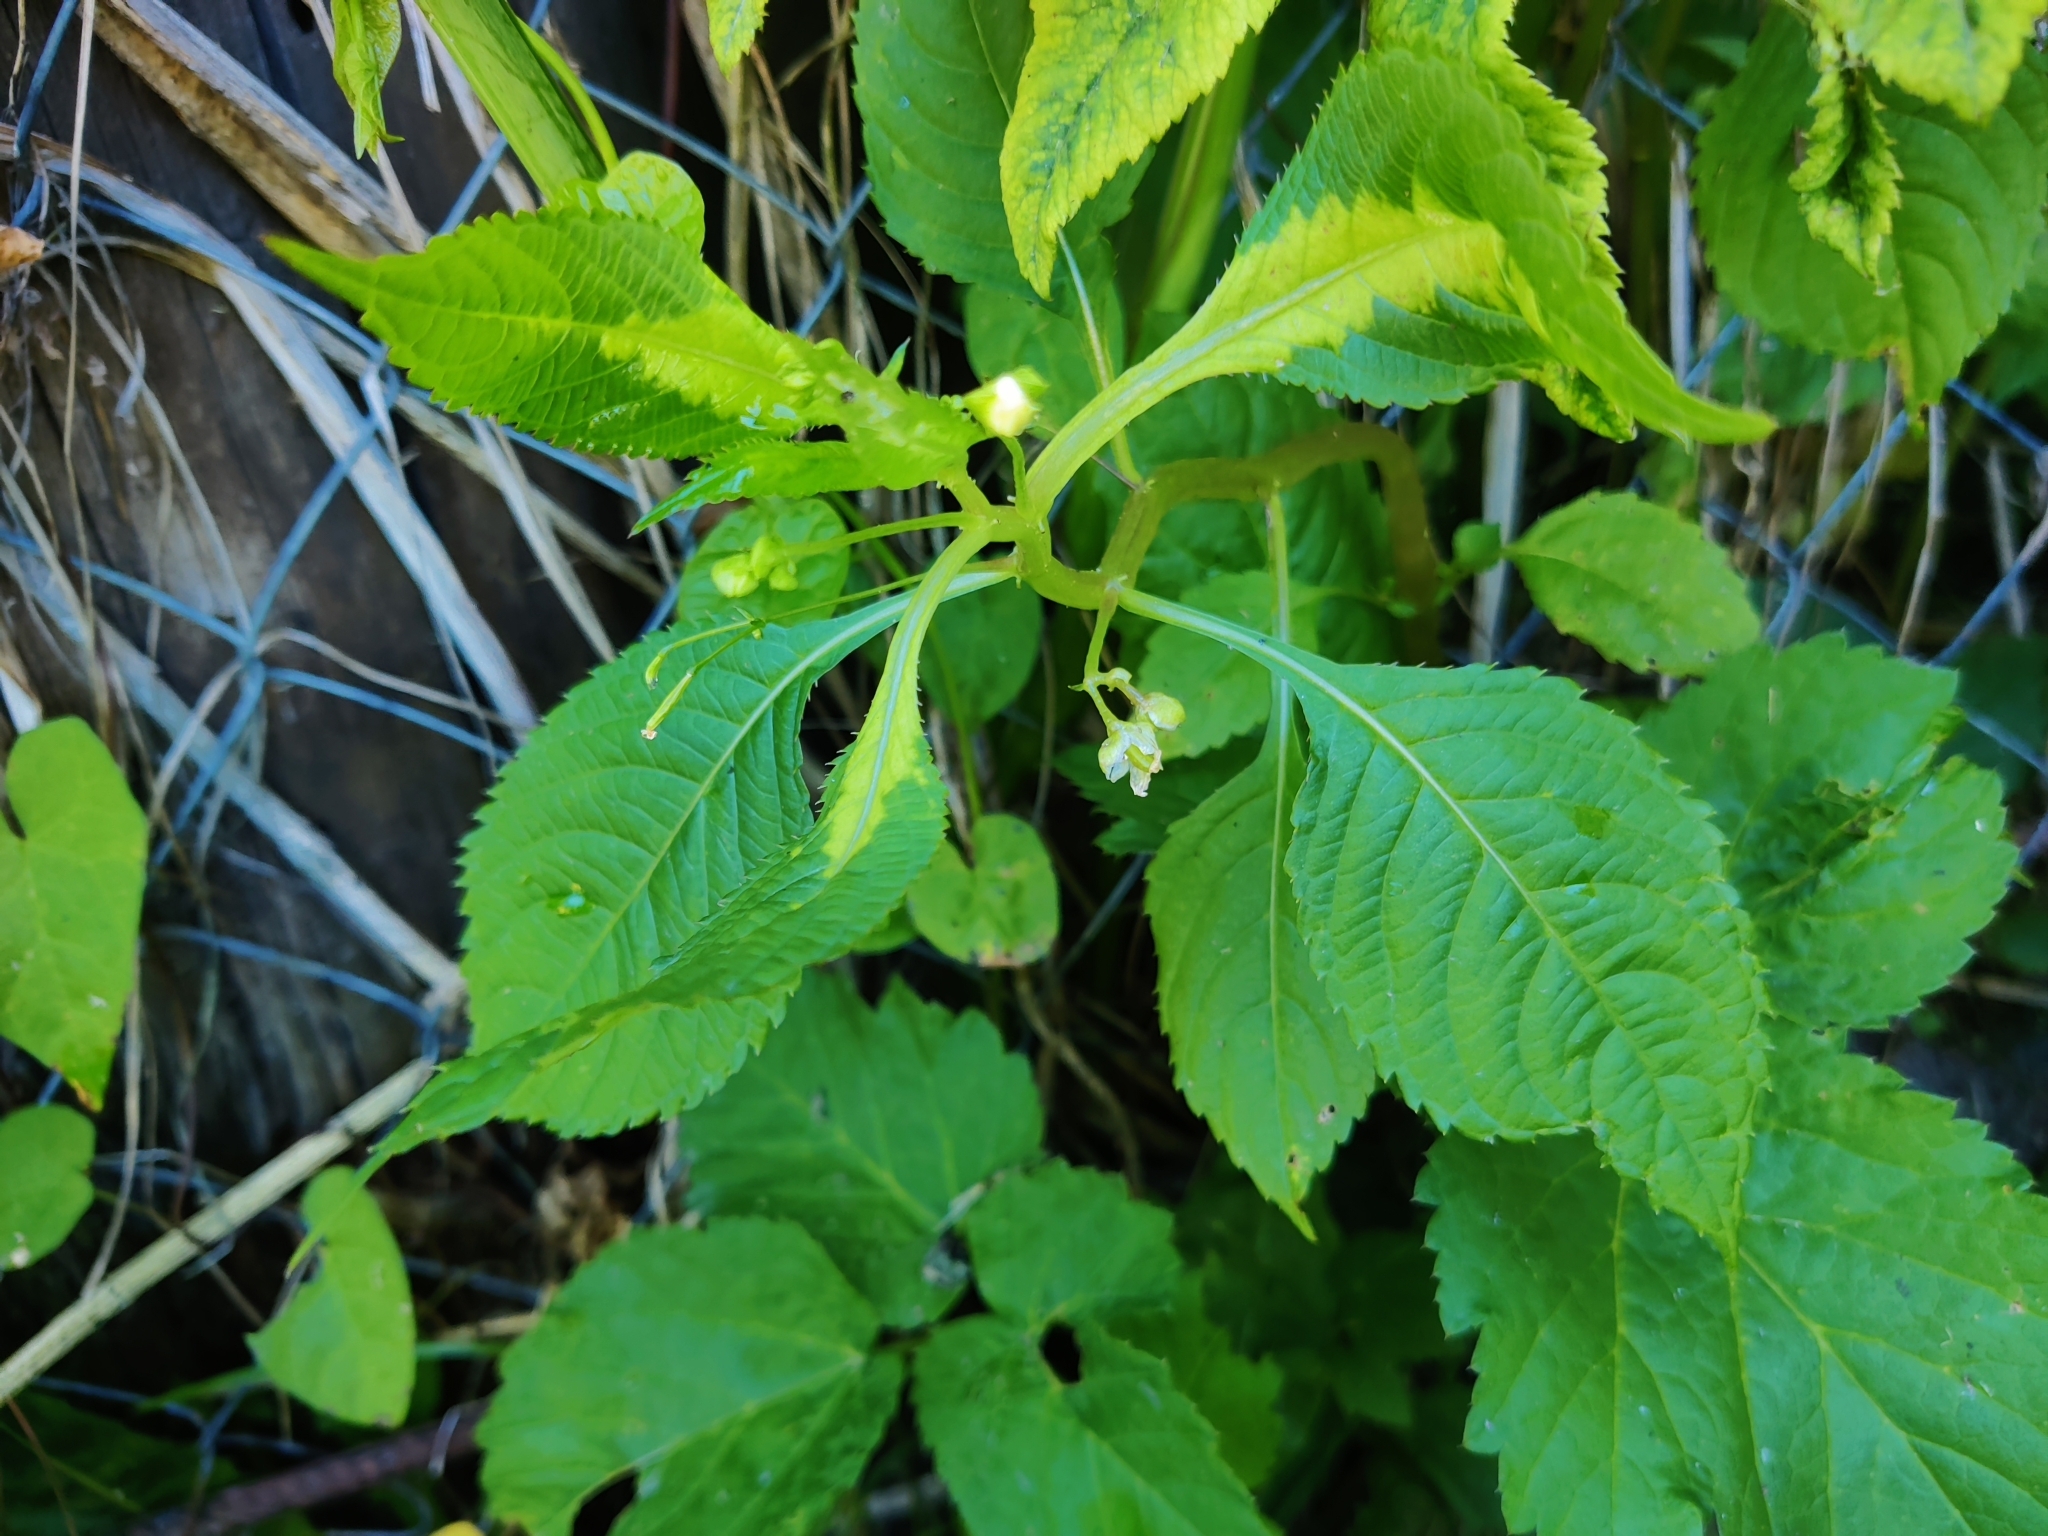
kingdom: Plantae
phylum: Tracheophyta
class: Magnoliopsida
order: Ericales
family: Balsaminaceae
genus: Impatiens
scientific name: Impatiens parviflora
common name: Small balsam
